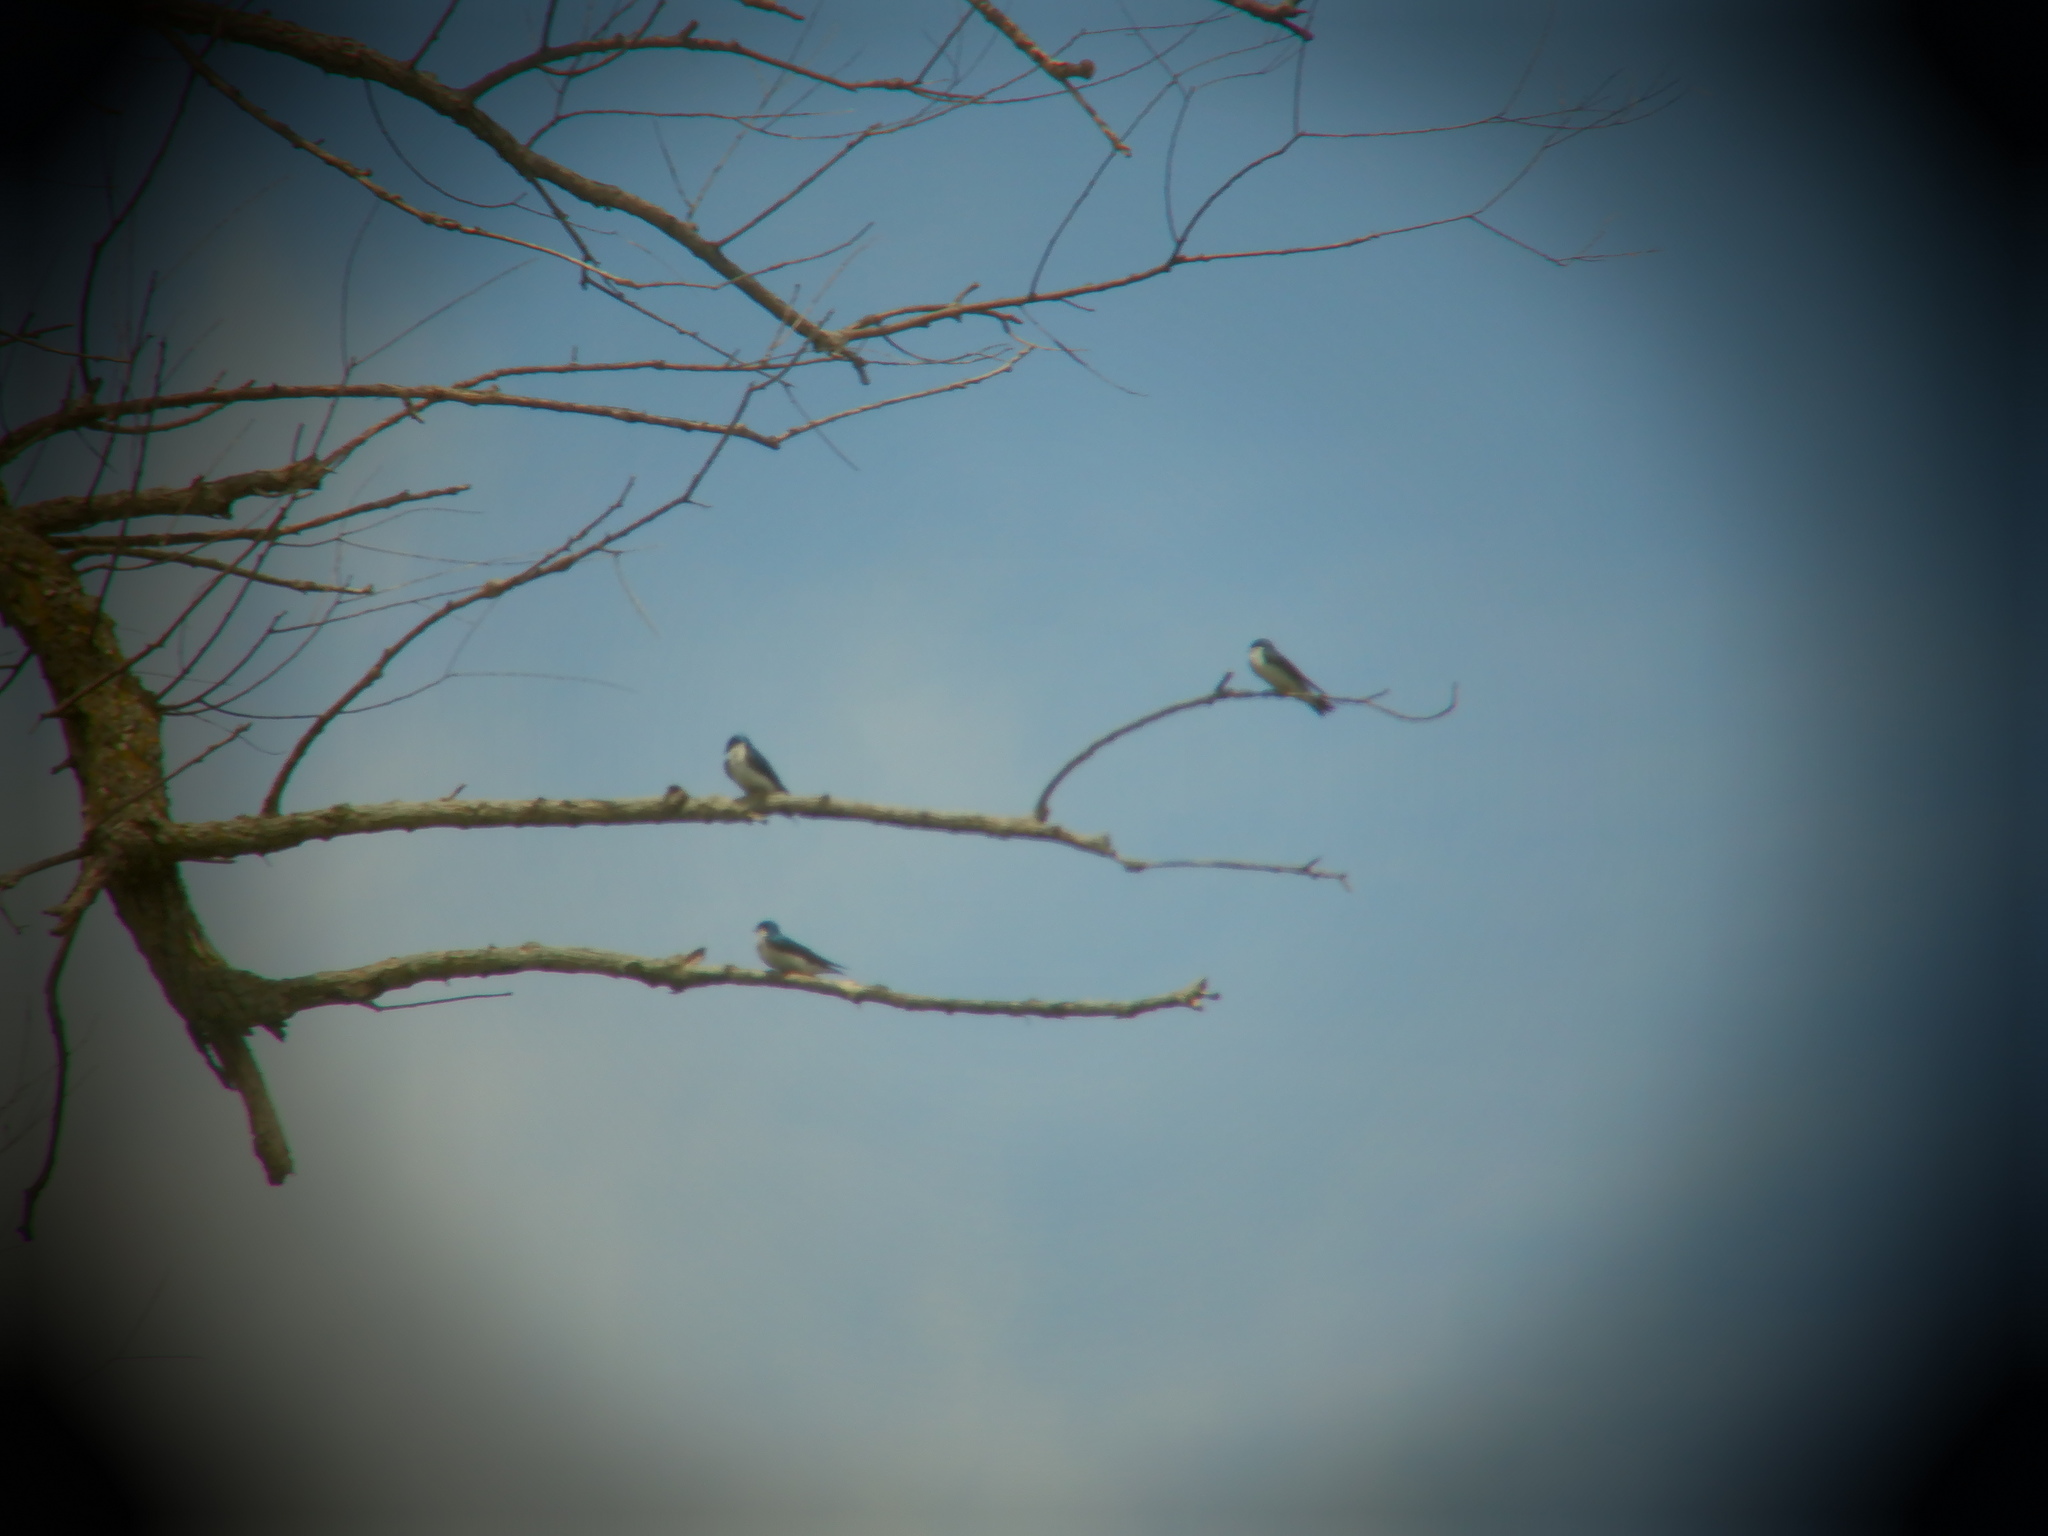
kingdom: Animalia
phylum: Chordata
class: Aves
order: Passeriformes
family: Hirundinidae
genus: Tachycineta
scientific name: Tachycineta bicolor
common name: Tree swallow
